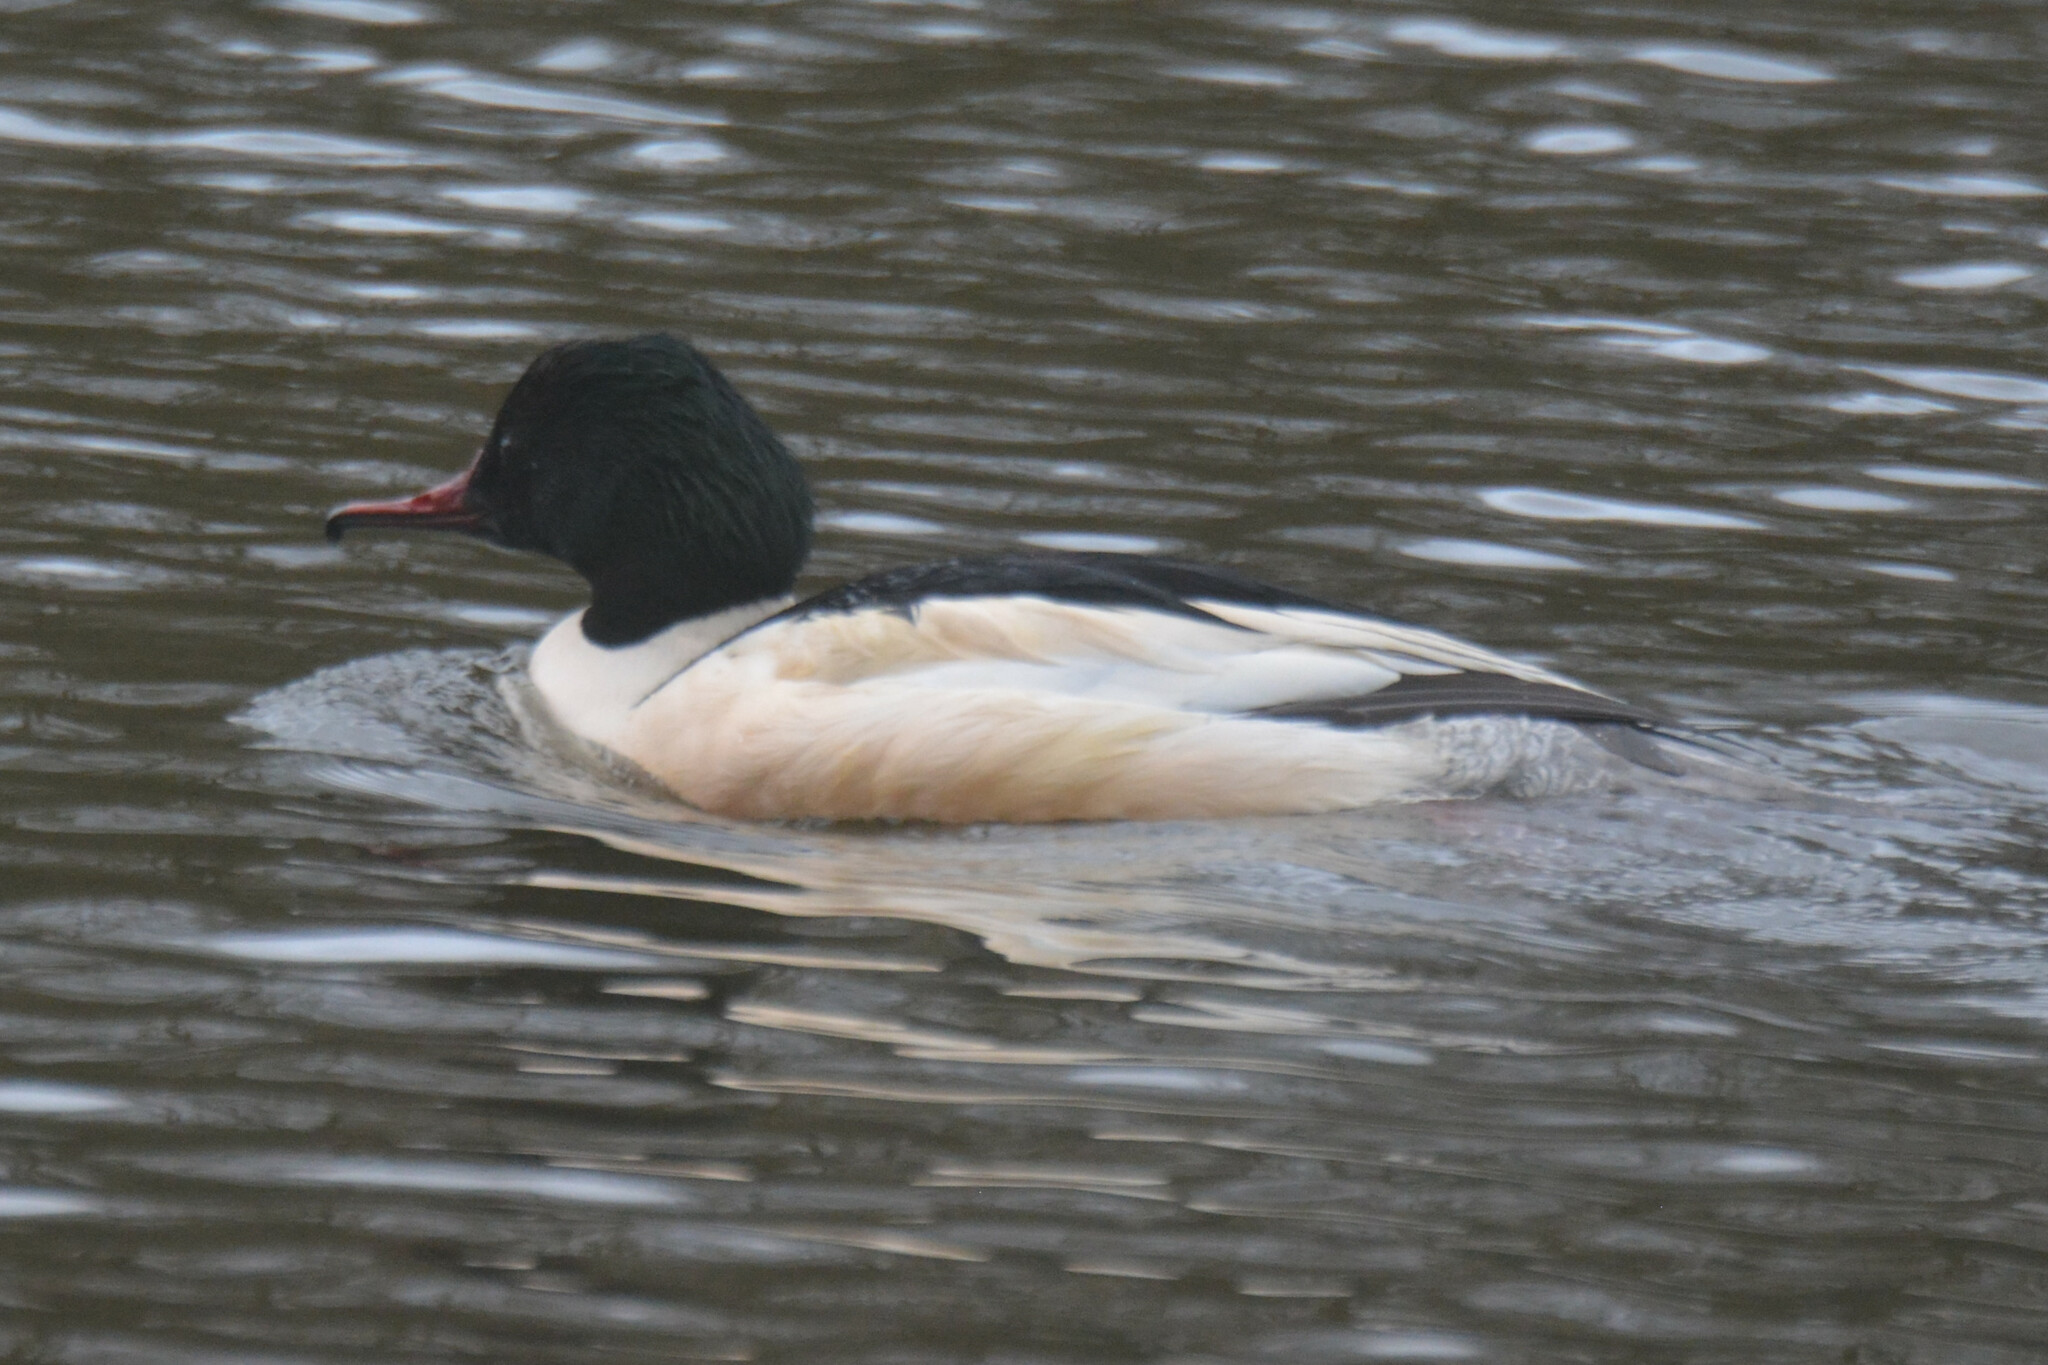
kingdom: Animalia
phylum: Chordata
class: Aves
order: Anseriformes
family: Anatidae
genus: Mergus
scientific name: Mergus merganser
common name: Common merganser
